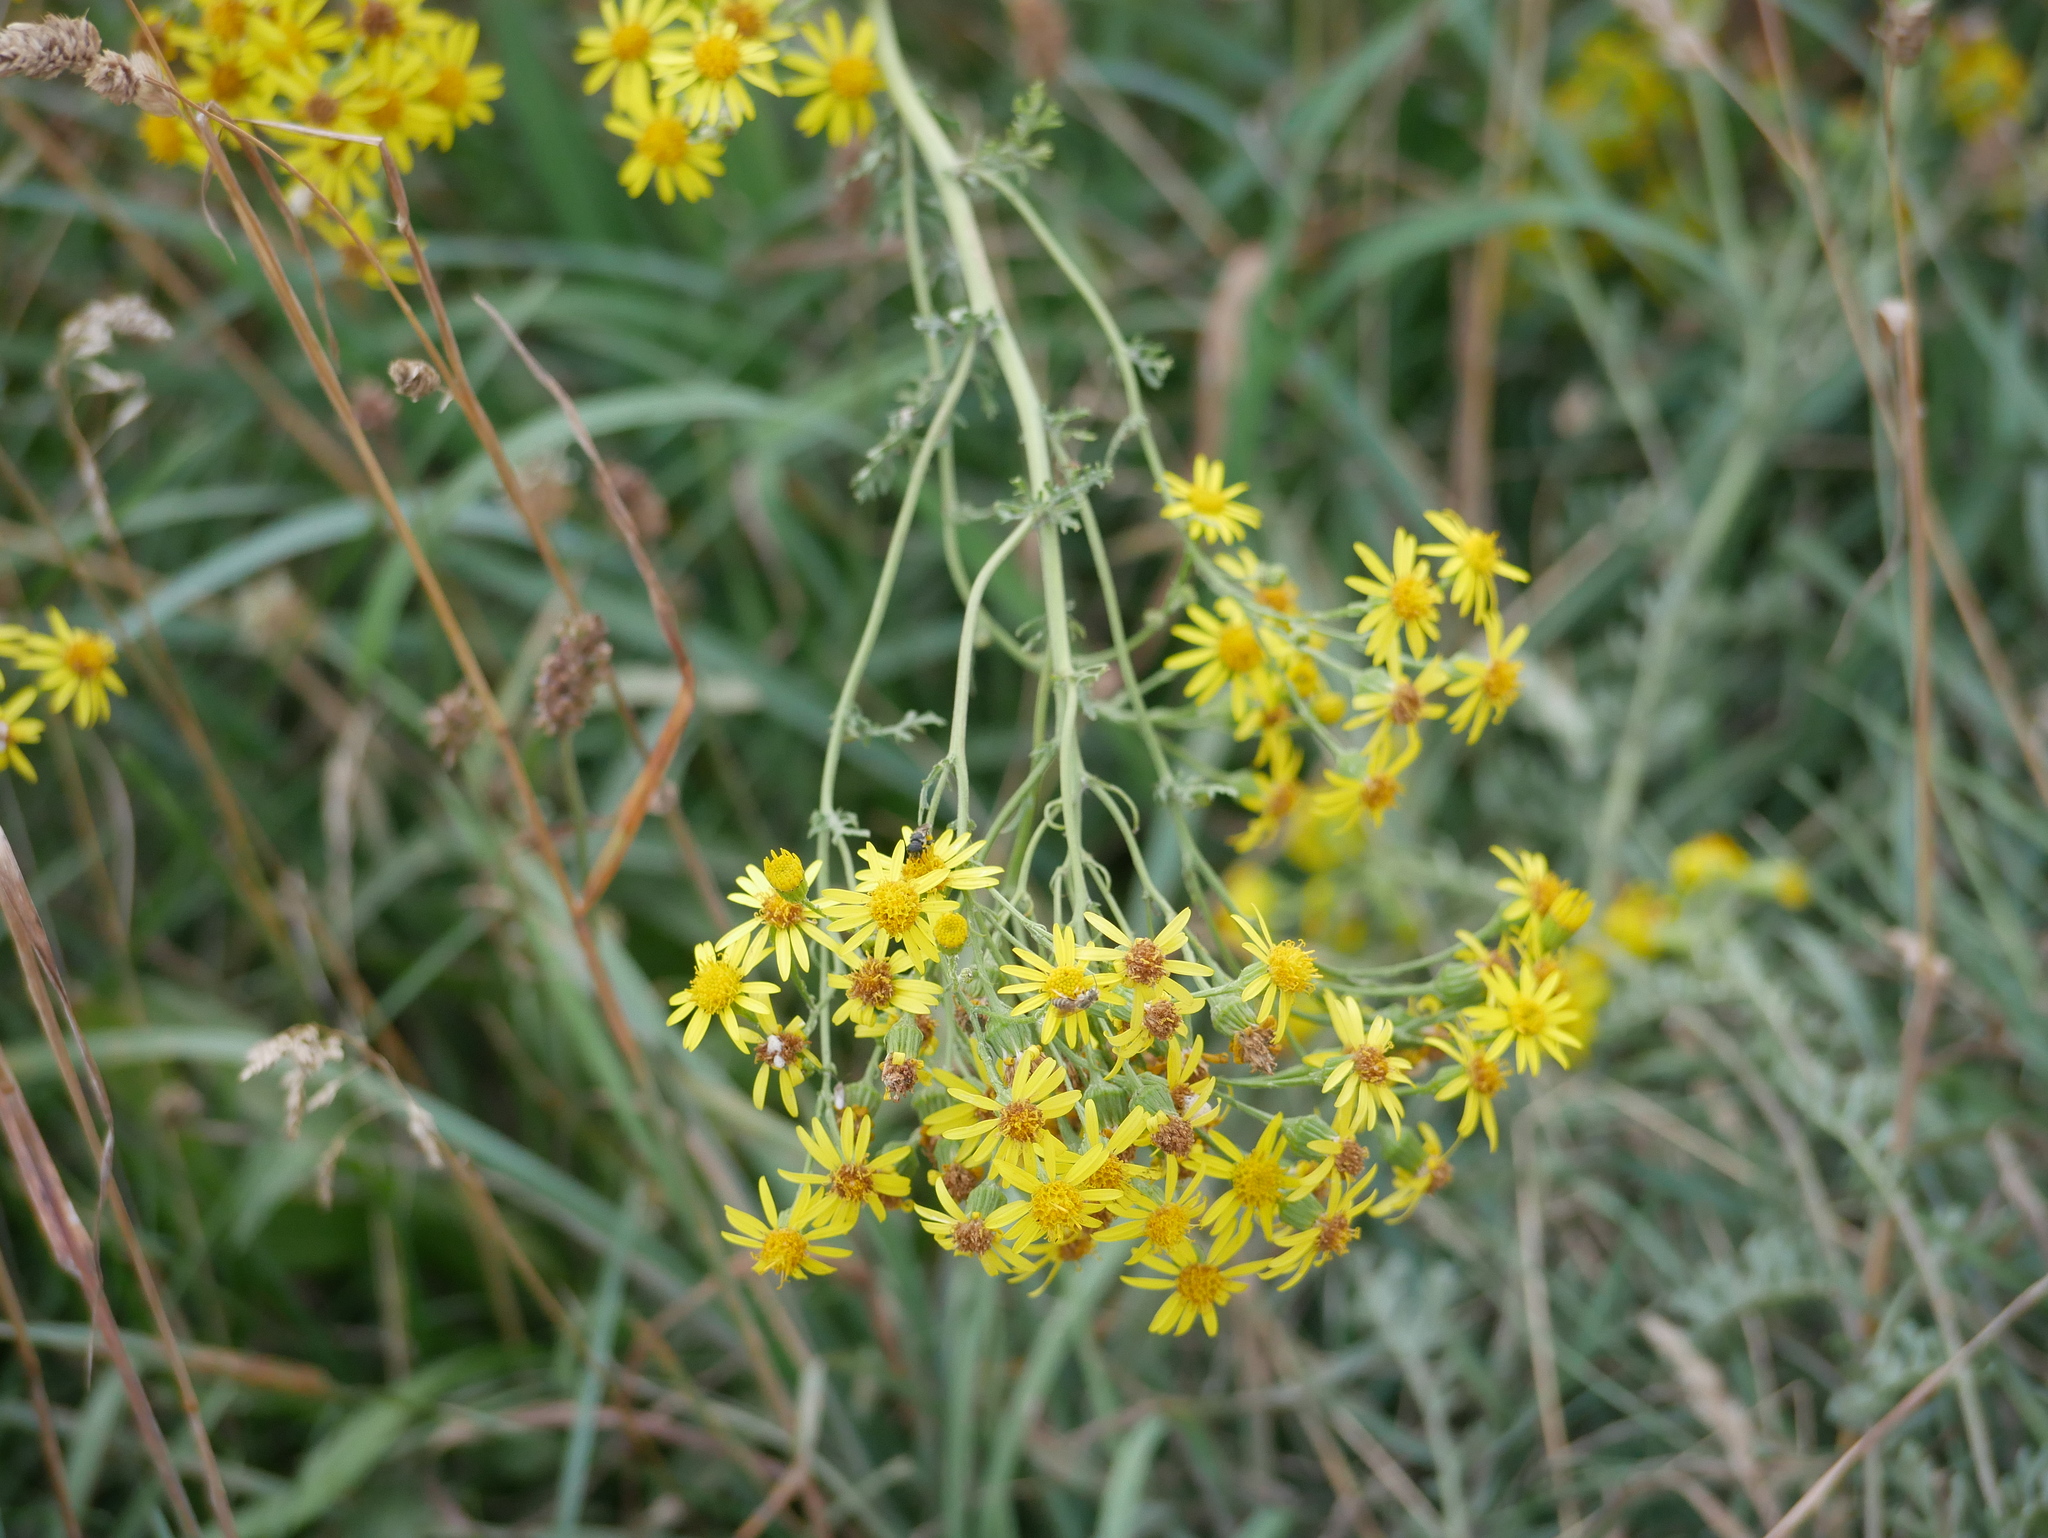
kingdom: Plantae
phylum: Tracheophyta
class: Magnoliopsida
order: Asterales
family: Asteraceae
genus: Jacobaea
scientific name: Jacobaea vulgaris
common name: Stinking willie
